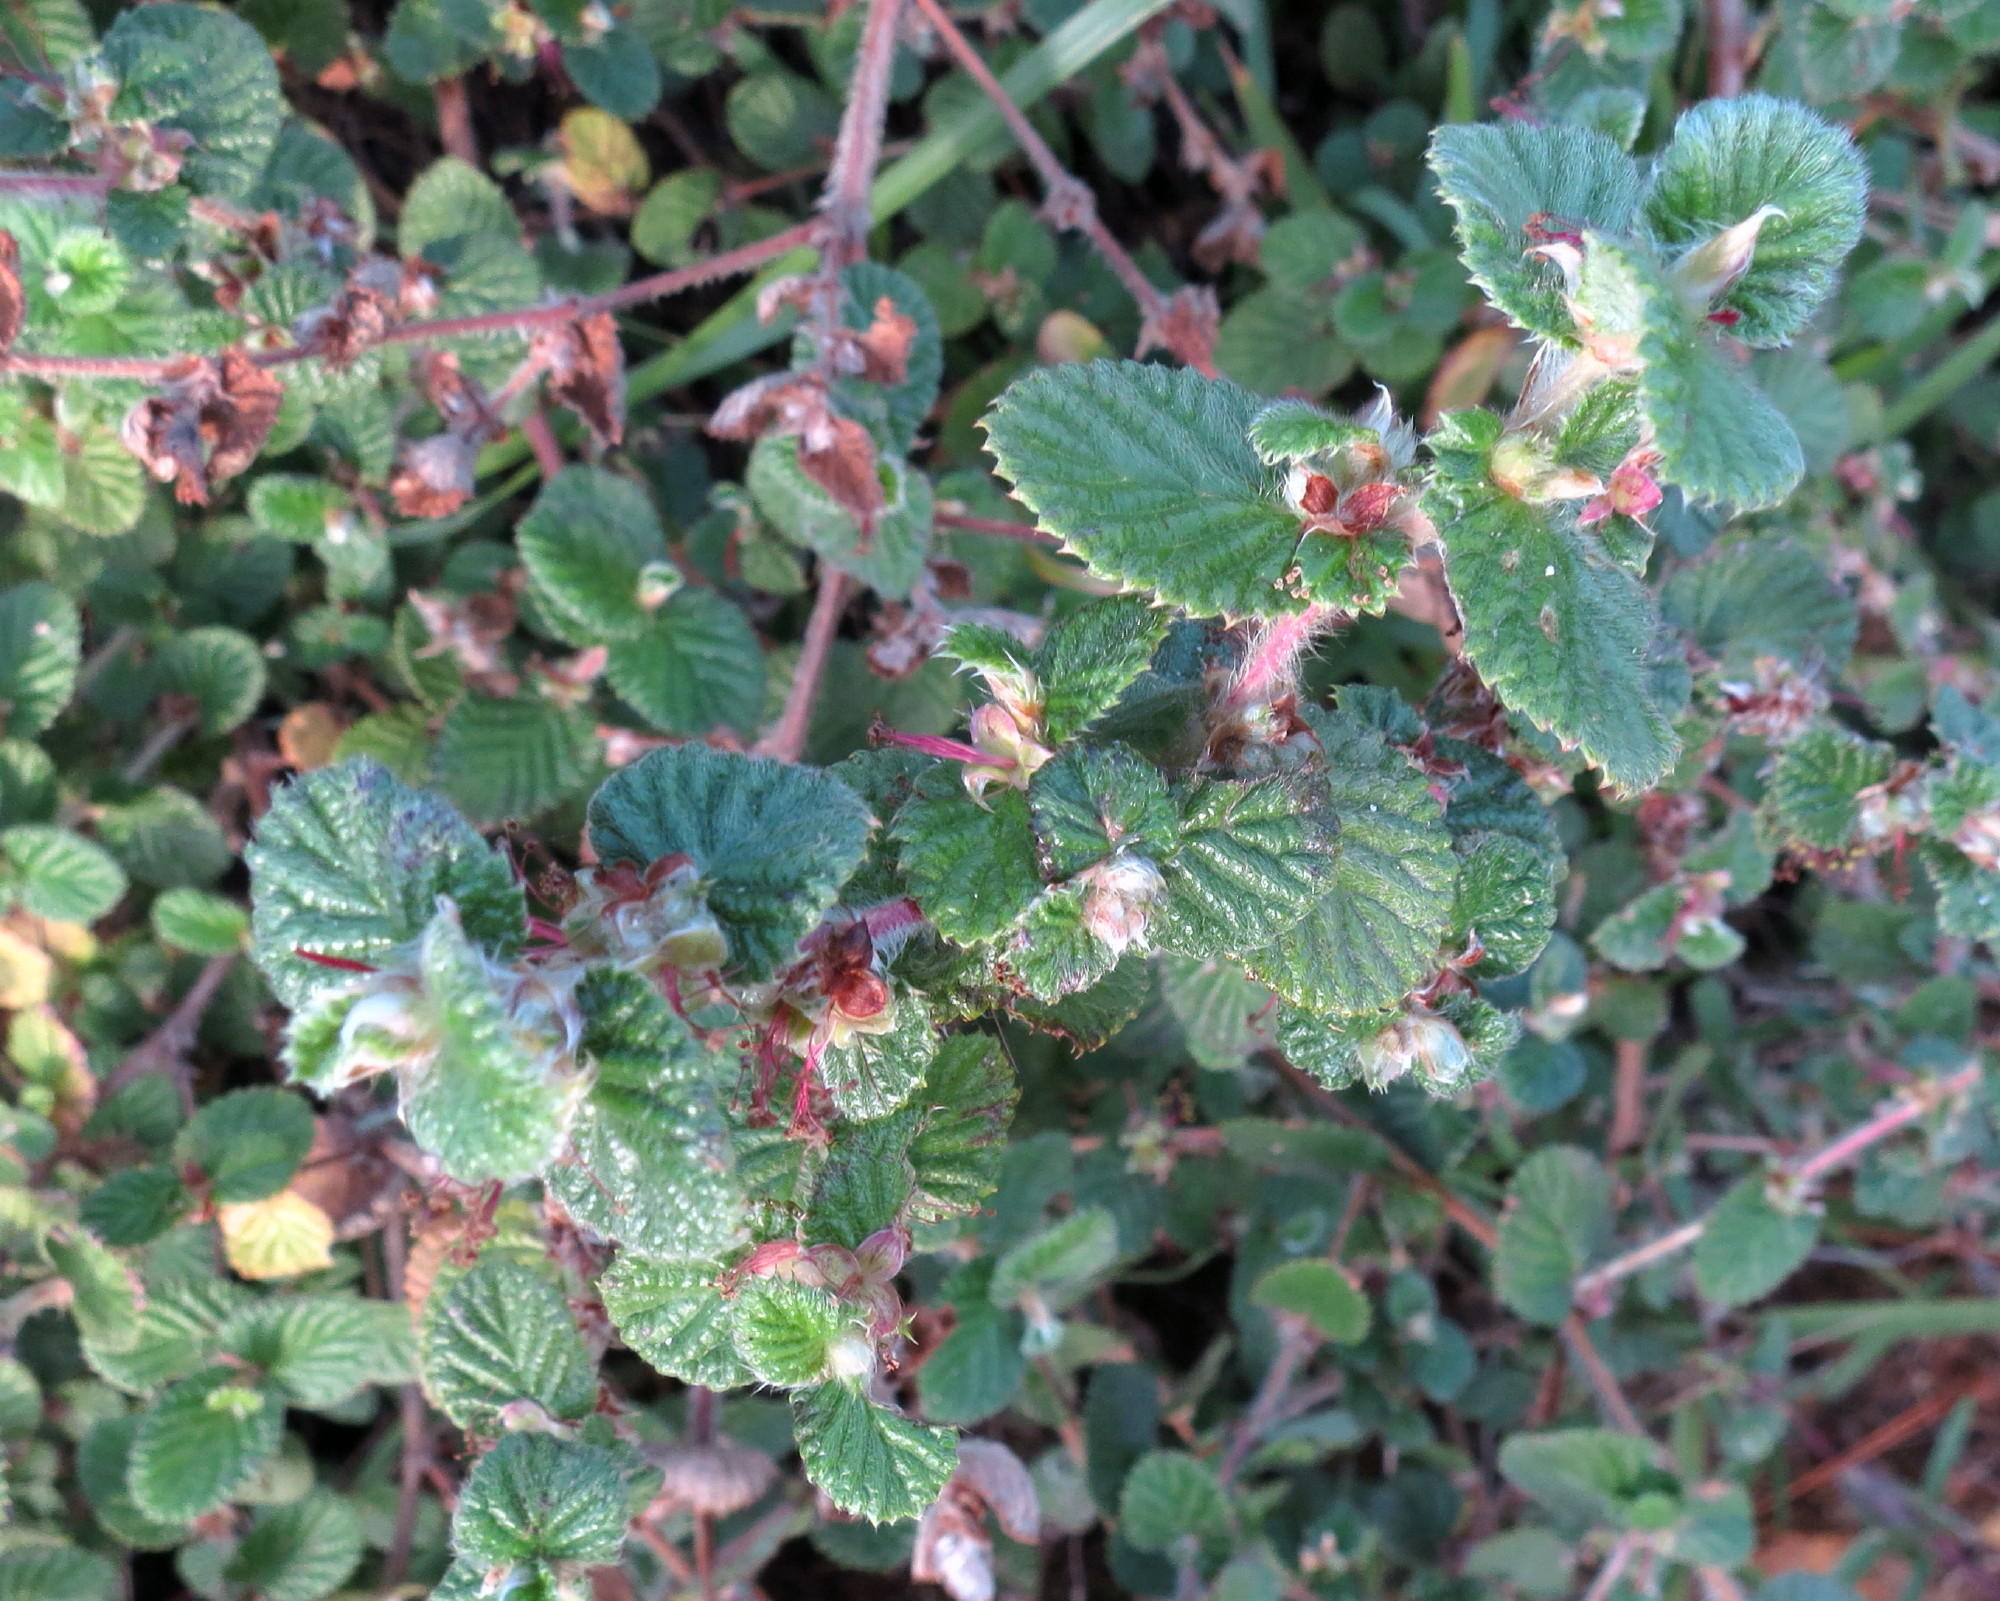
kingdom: Plantae
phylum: Tracheophyta
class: Magnoliopsida
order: Rosales
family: Rosaceae
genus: Cliffortia
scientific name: Cliffortia odorata
